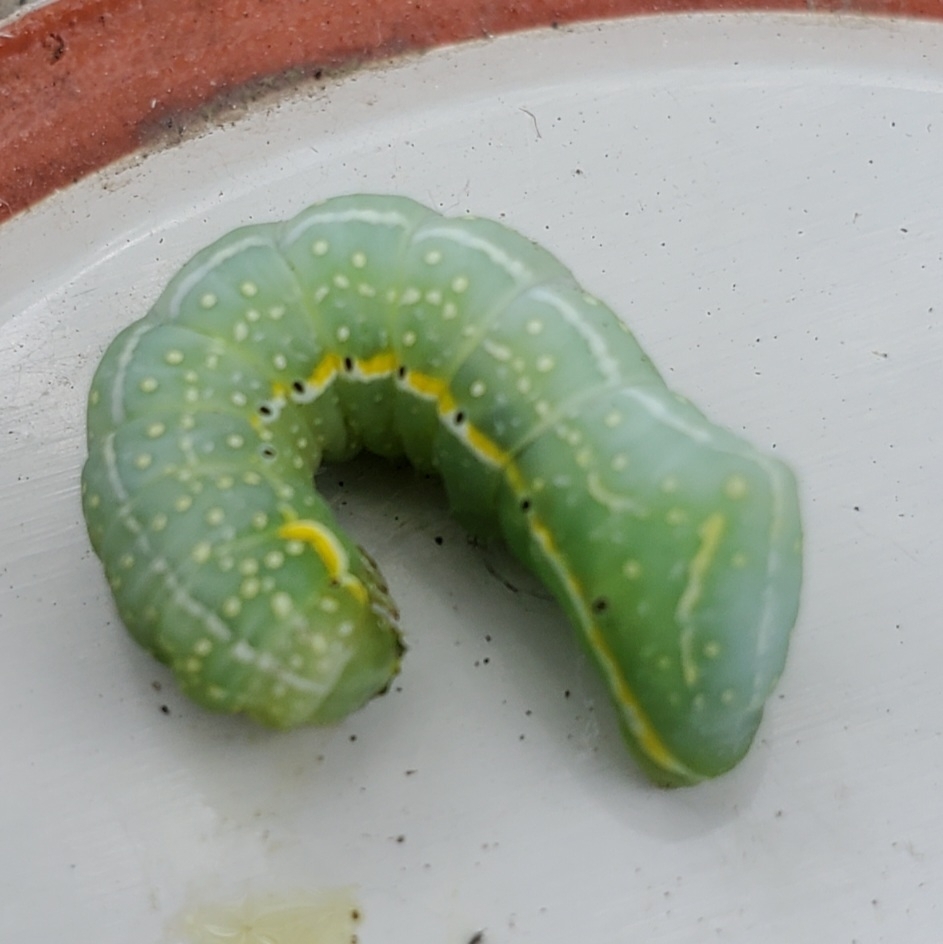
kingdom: Animalia
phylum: Arthropoda
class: Insecta
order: Lepidoptera
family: Noctuidae
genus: Amphipyra
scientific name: Amphipyra pyramidoides
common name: American copper underwing
